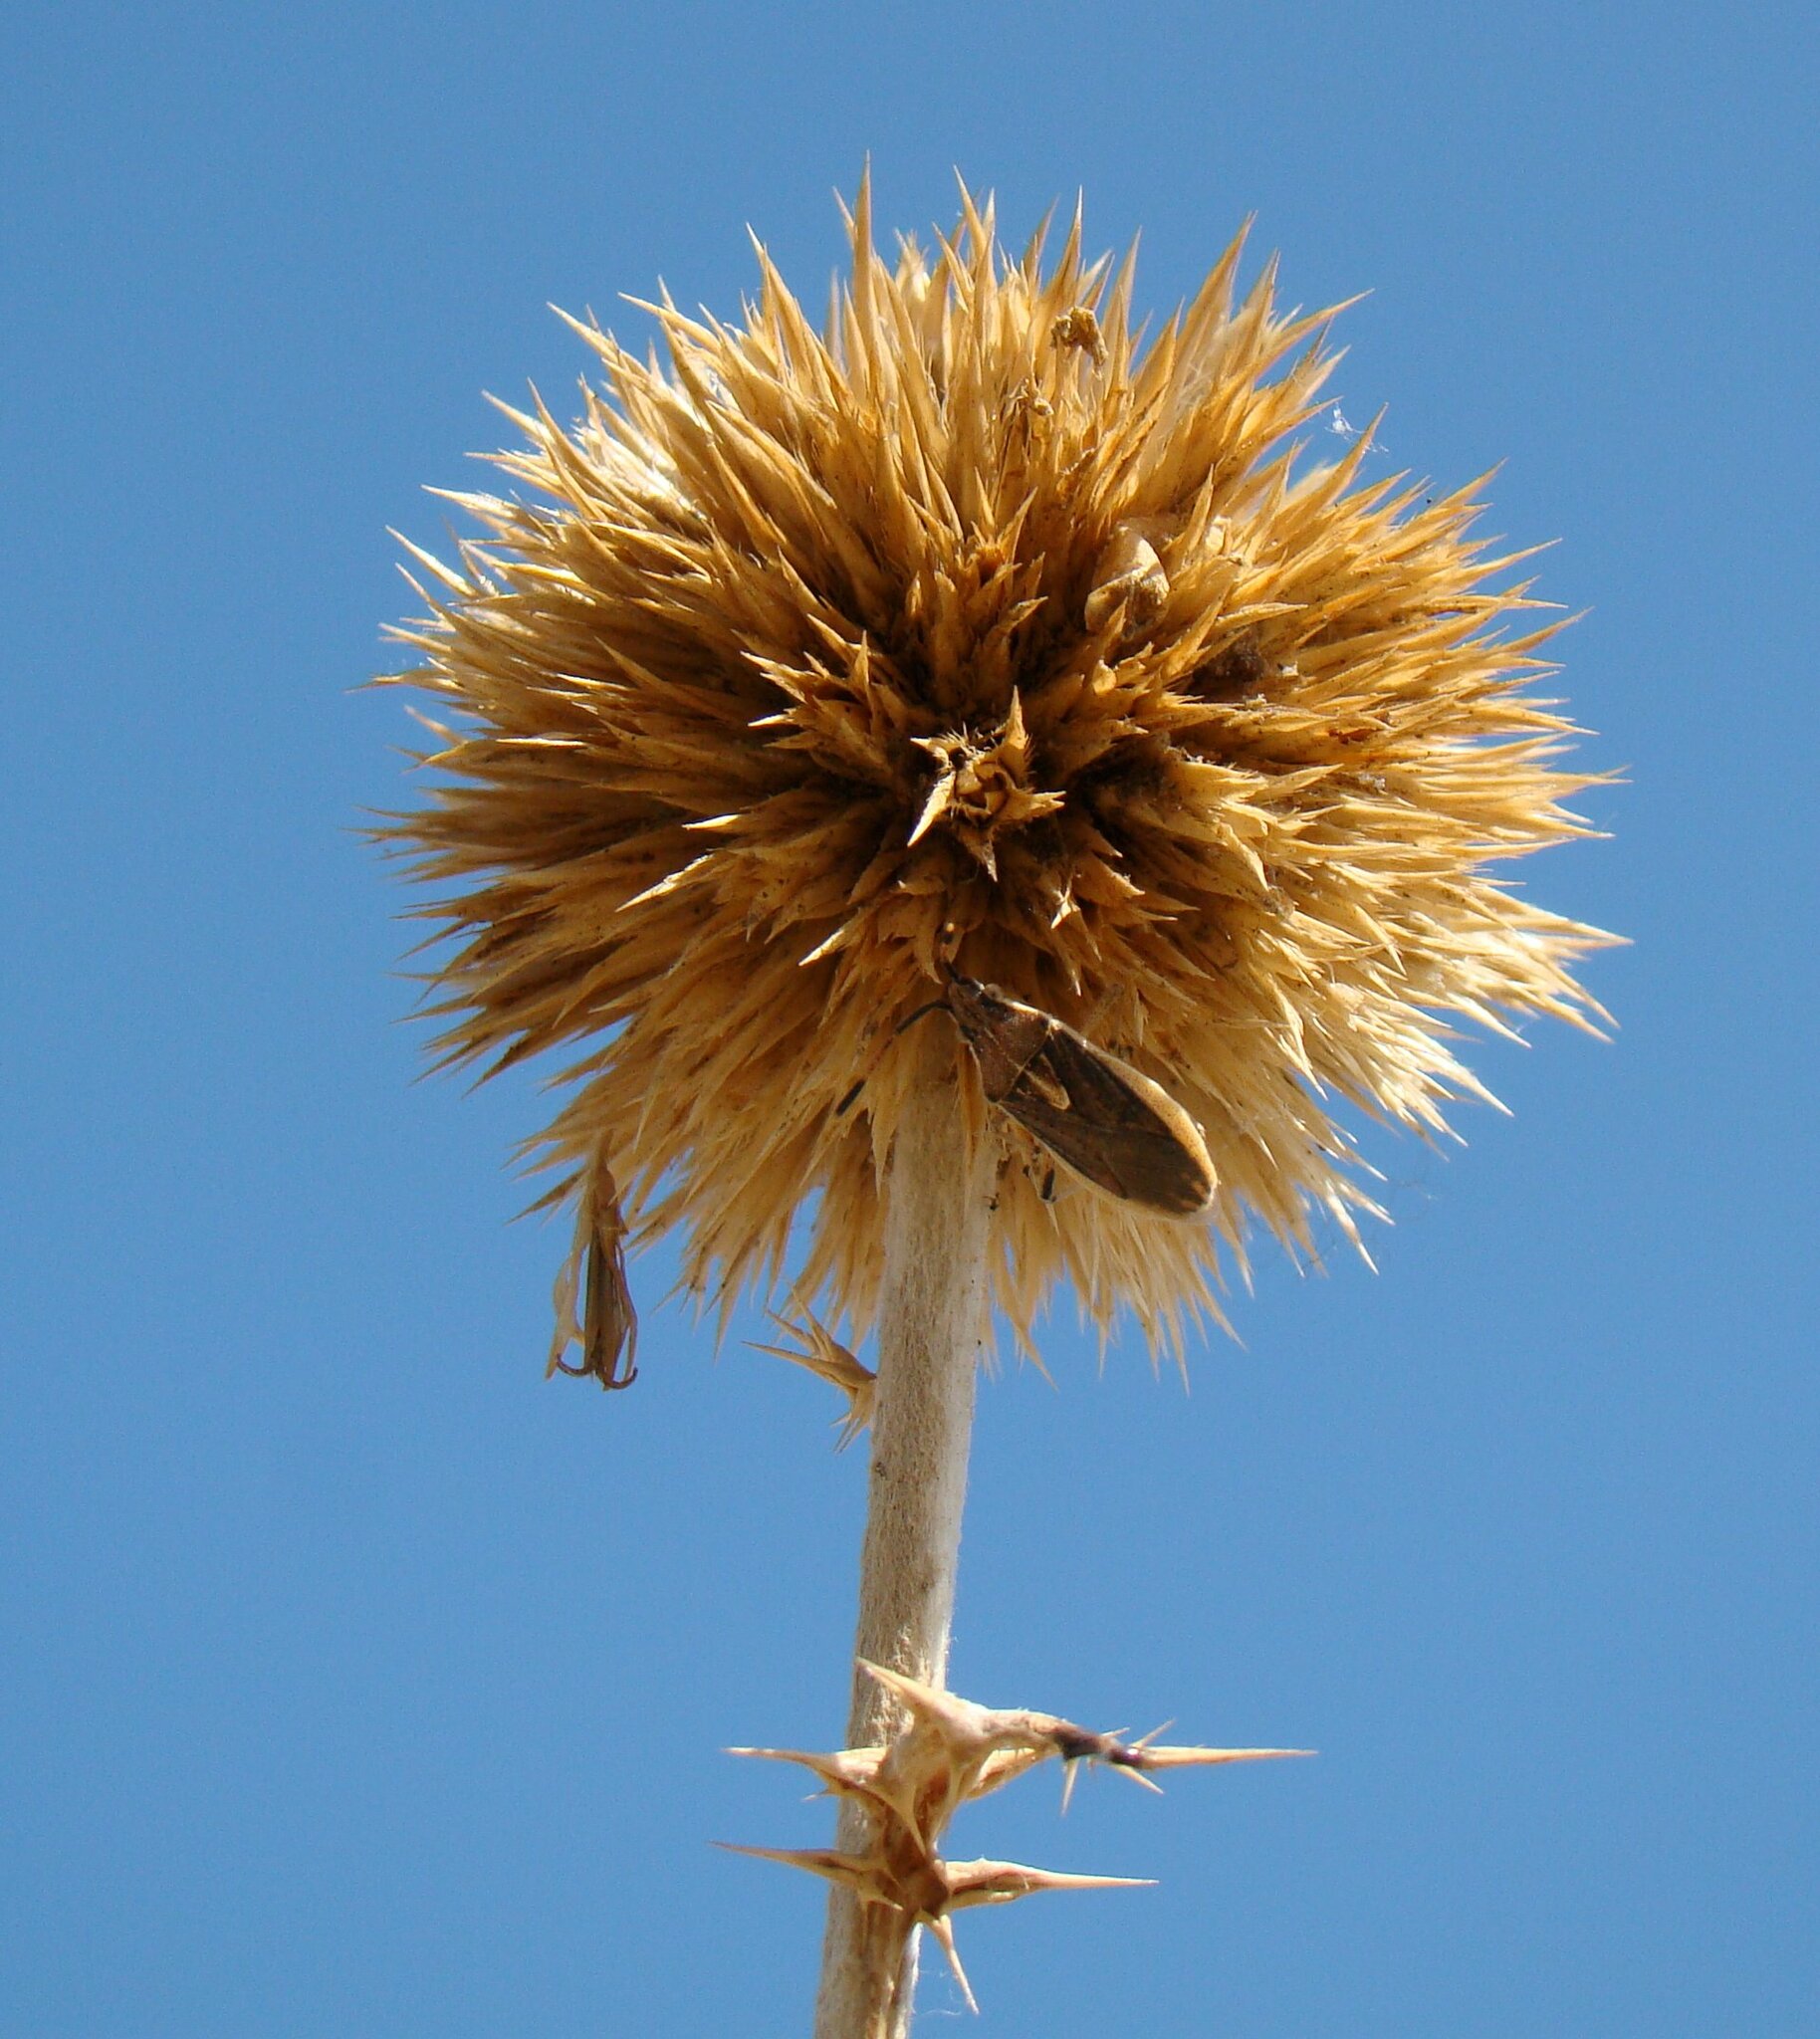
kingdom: Plantae
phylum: Tracheophyta
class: Magnoliopsida
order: Asterales
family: Asteraceae
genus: Echinops
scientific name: Echinops albicaulis
